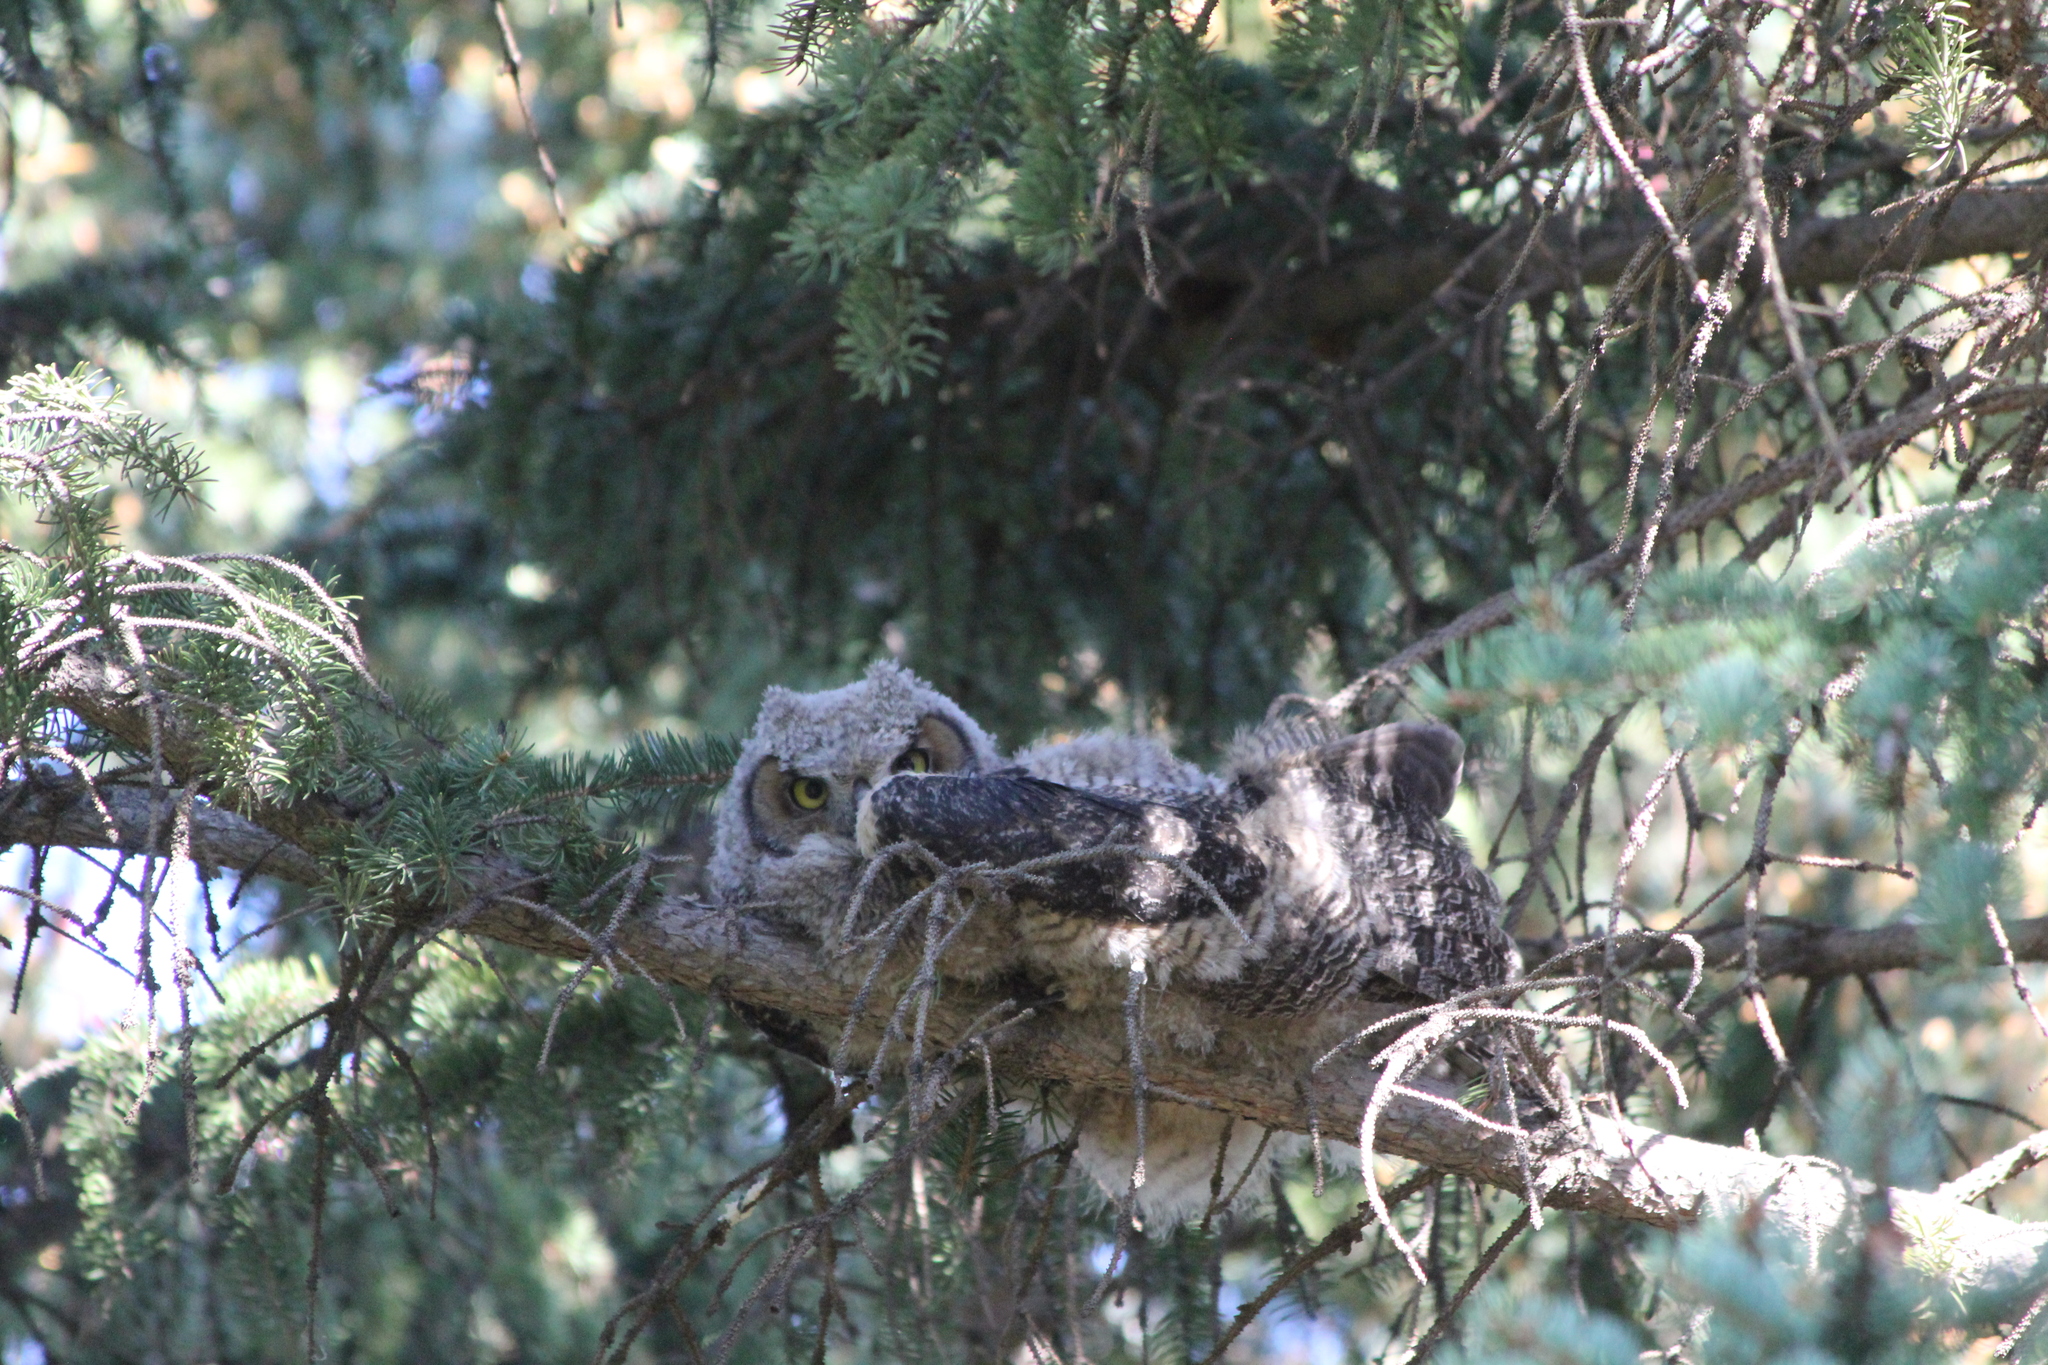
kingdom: Animalia
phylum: Chordata
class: Aves
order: Strigiformes
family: Strigidae
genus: Bubo
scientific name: Bubo virginianus
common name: Great horned owl
